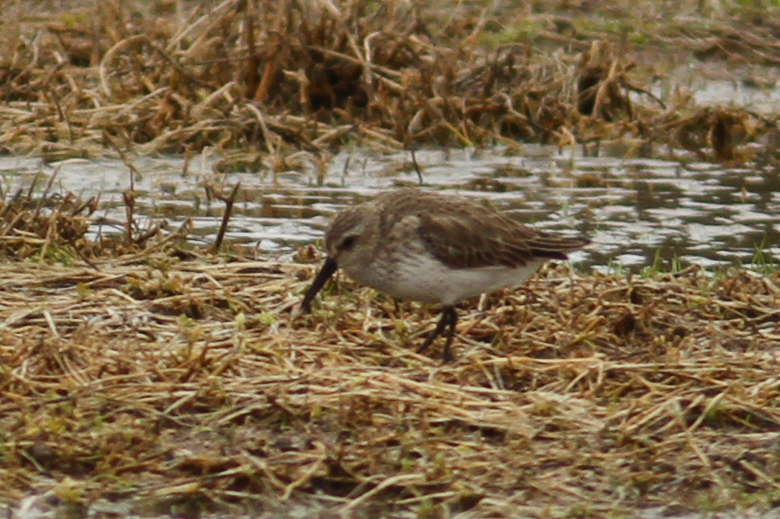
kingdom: Animalia
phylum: Chordata
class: Aves
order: Charadriiformes
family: Scolopacidae
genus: Calidris
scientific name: Calidris alpina
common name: Dunlin
